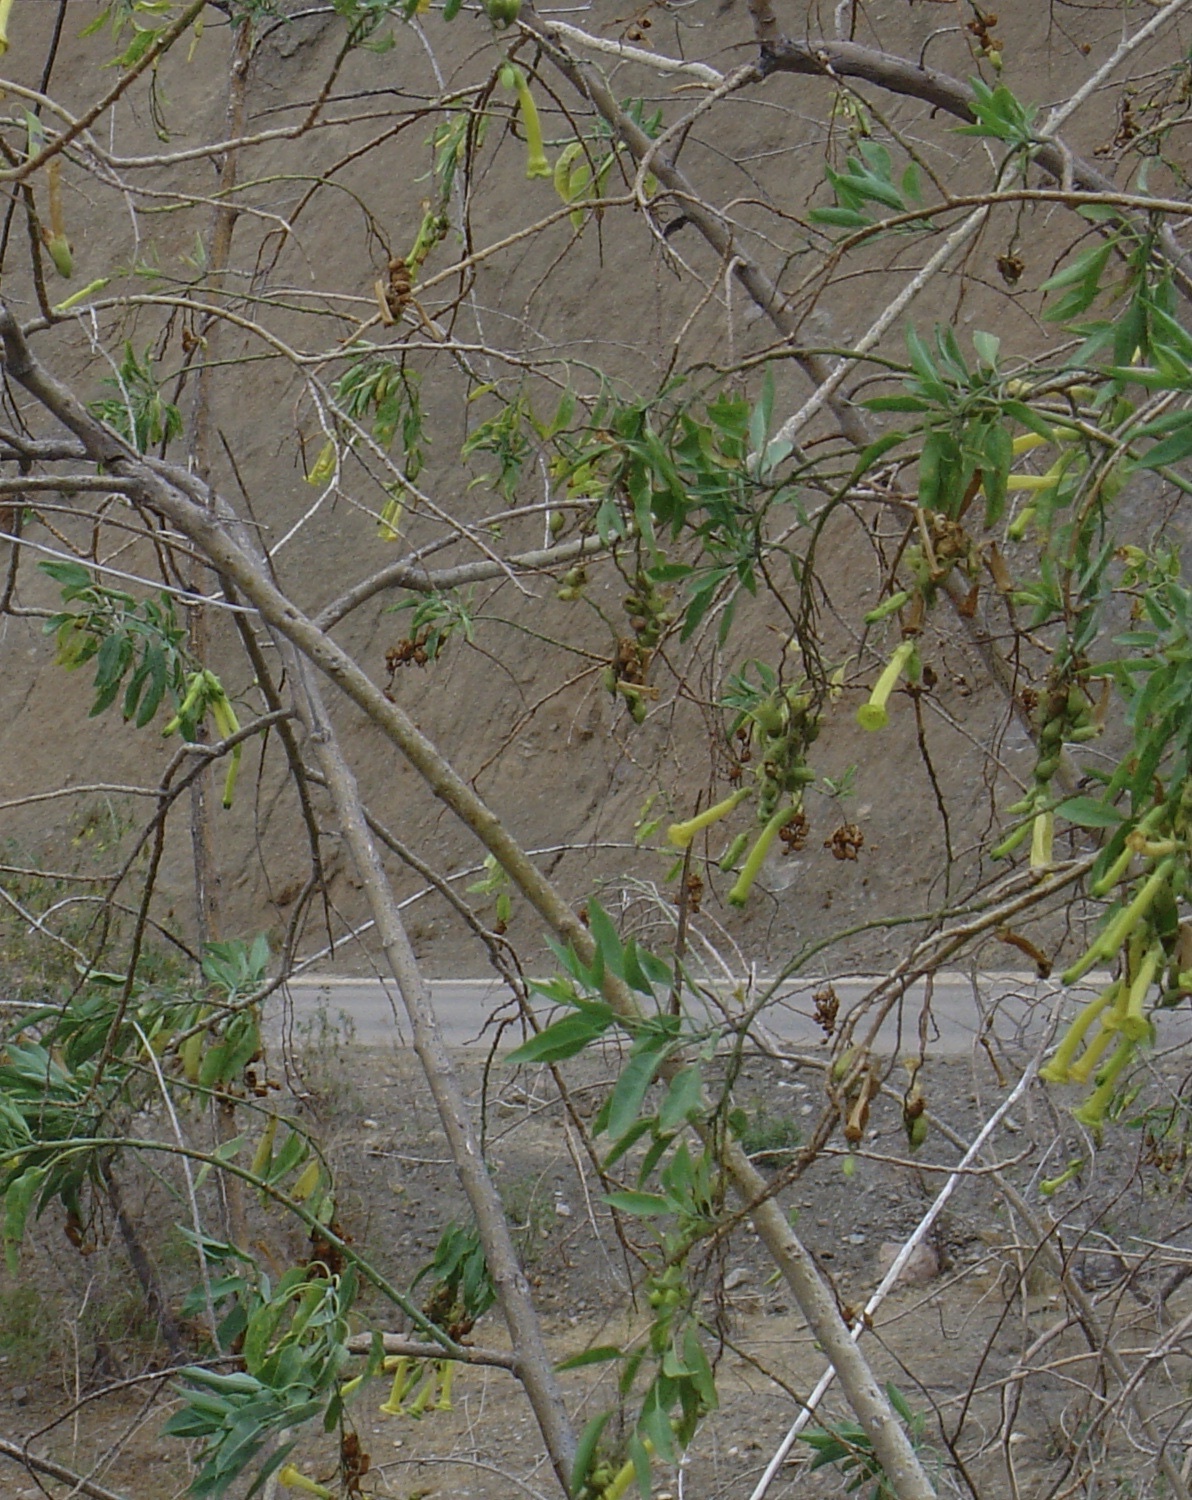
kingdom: Plantae
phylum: Tracheophyta
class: Magnoliopsida
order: Solanales
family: Solanaceae
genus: Nicotiana
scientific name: Nicotiana glauca
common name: Tree tobacco
